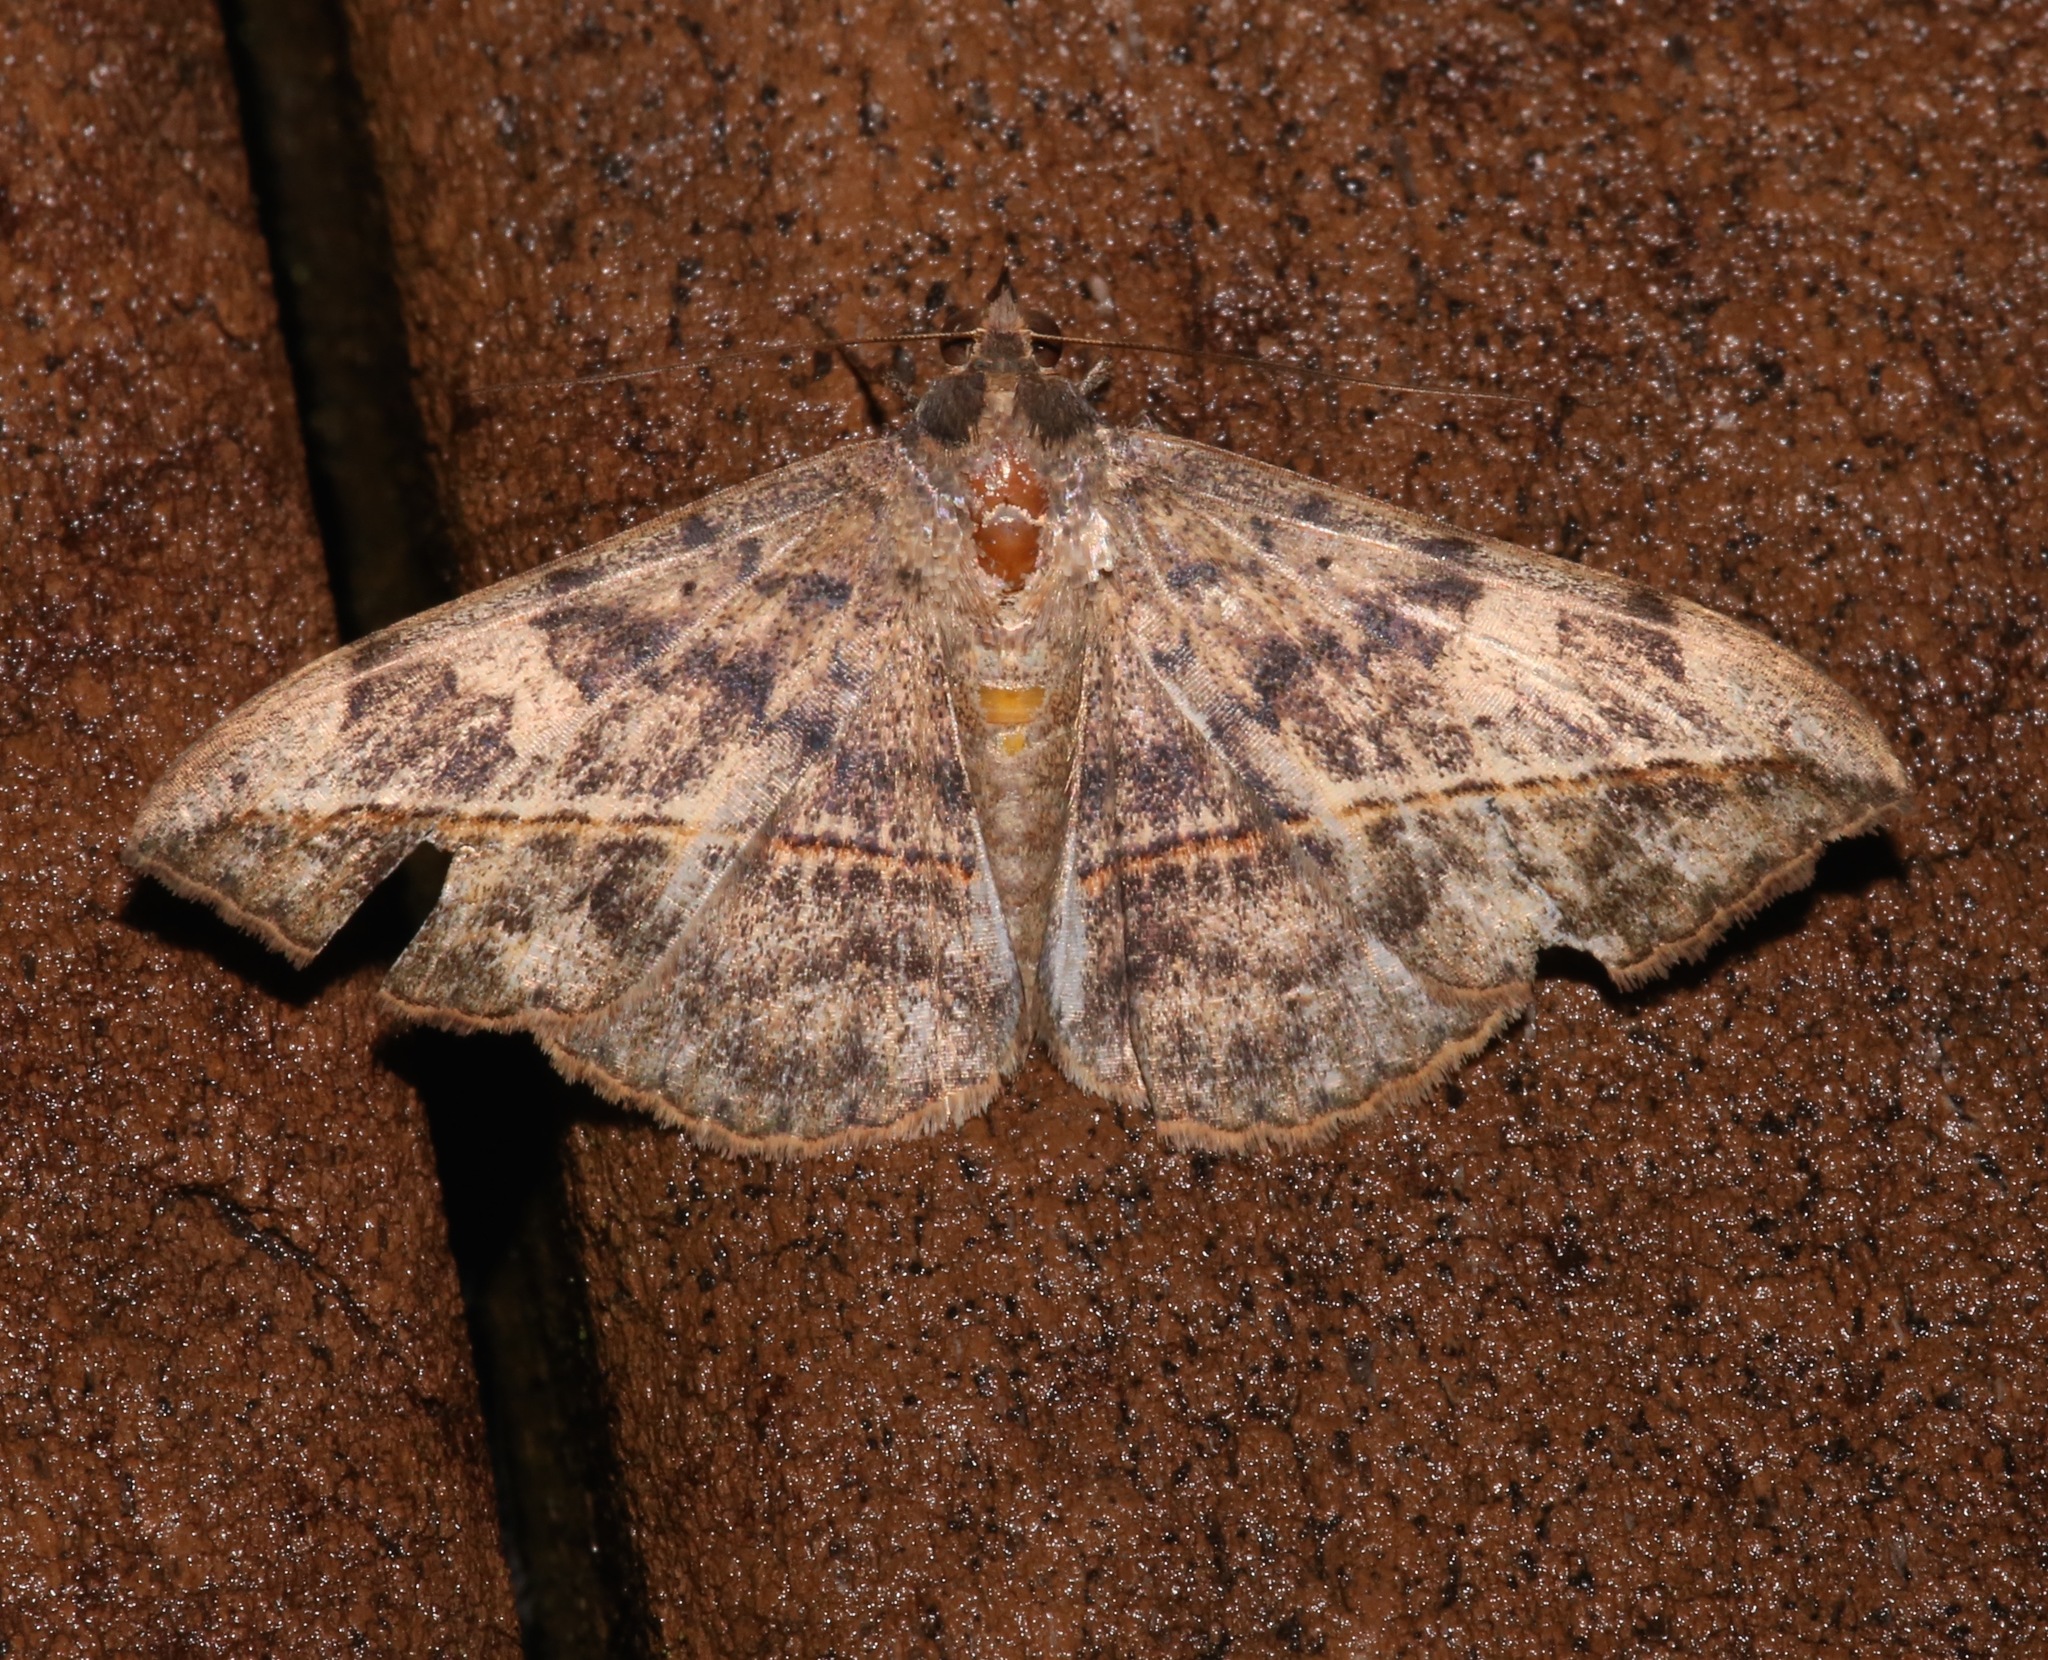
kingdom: Animalia
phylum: Arthropoda
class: Insecta
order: Lepidoptera
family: Erebidae
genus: Anticarsia
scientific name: Anticarsia gemmatalis
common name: Cutworm moth
